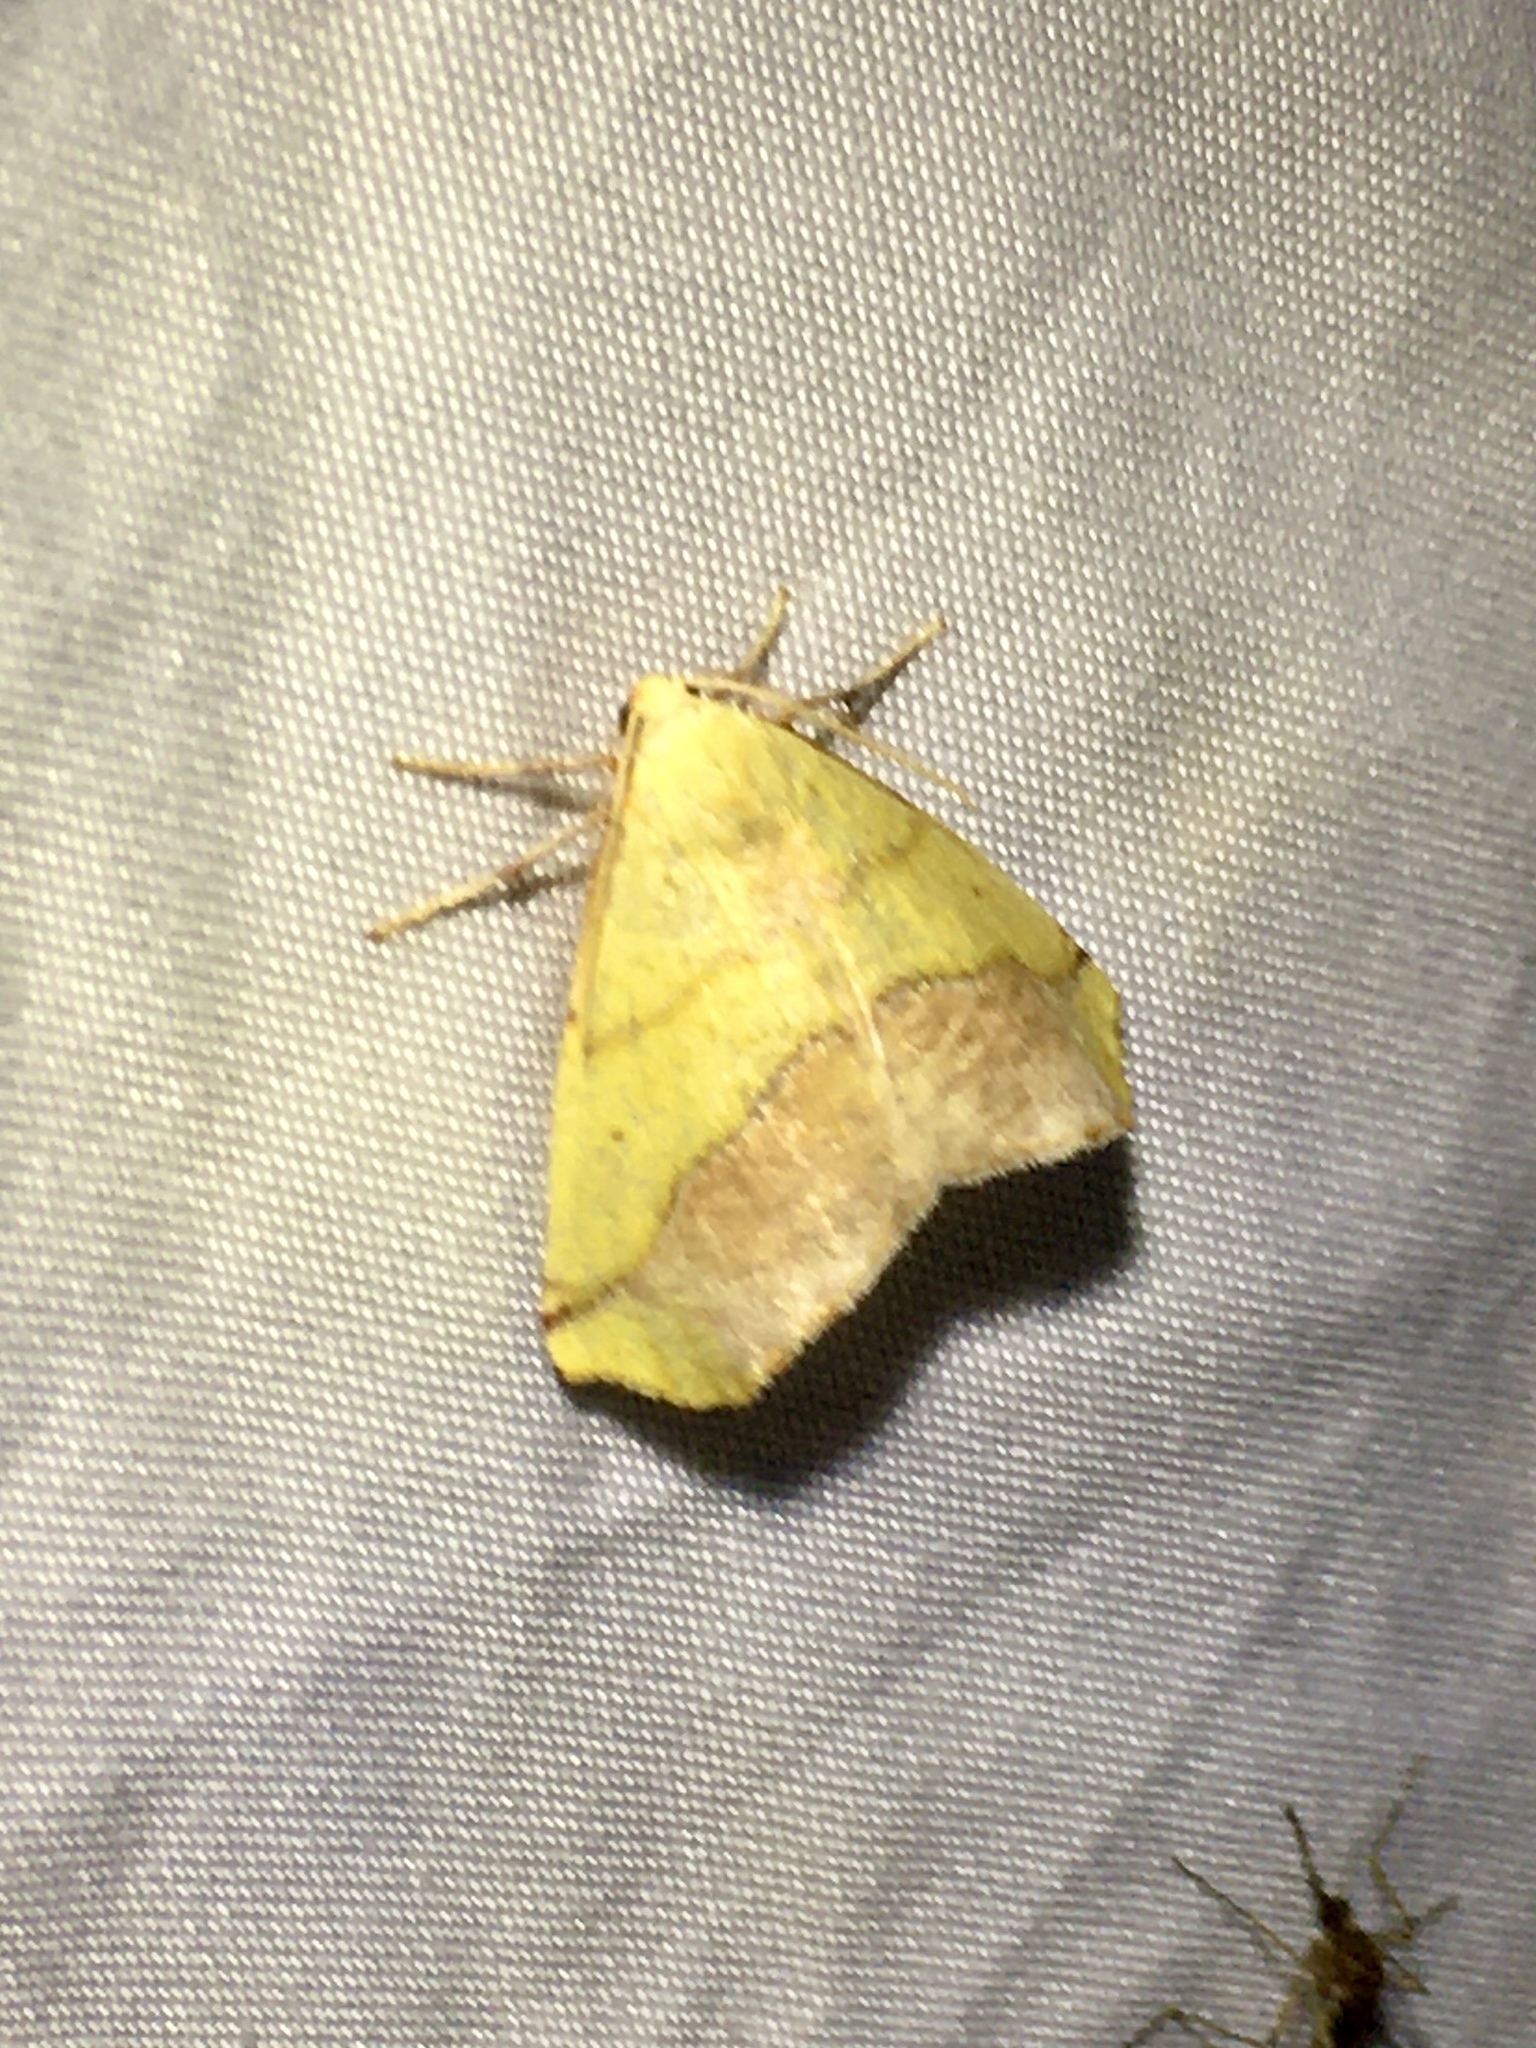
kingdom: Animalia
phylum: Arthropoda
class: Insecta
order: Lepidoptera
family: Geometridae
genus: Sicya
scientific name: Sicya macularia
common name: Sharp-lined yellow
